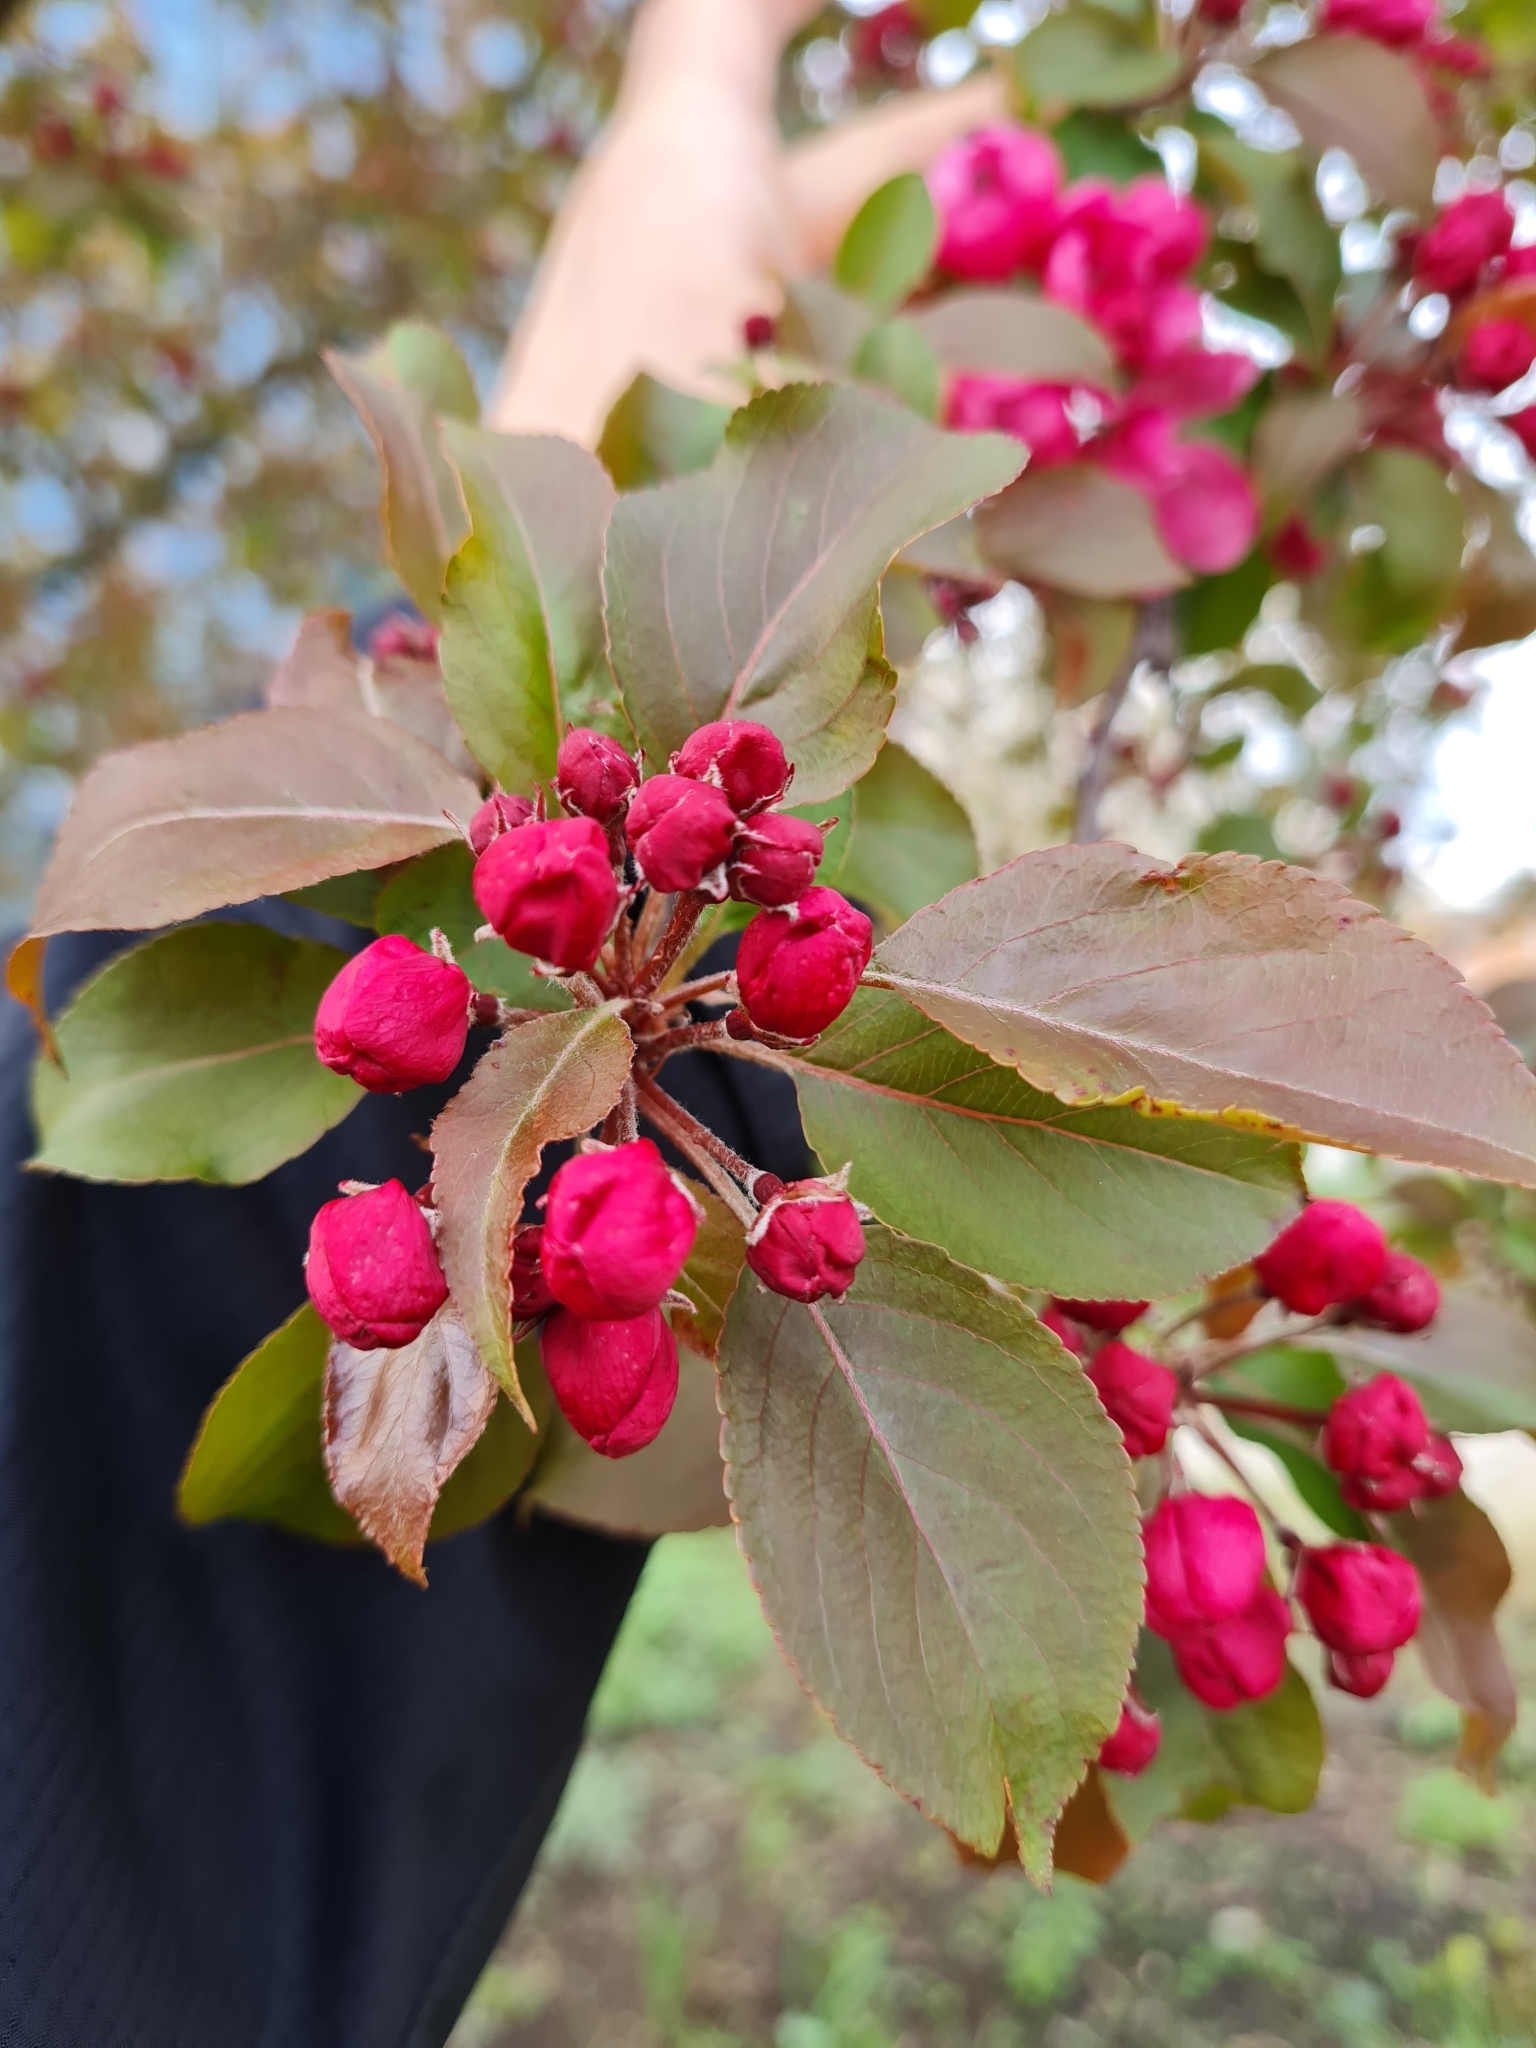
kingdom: Plantae
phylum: Tracheophyta
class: Magnoliopsida
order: Rosales
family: Rosaceae
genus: Malus
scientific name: Malus purpurea
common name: Purple crab apple
